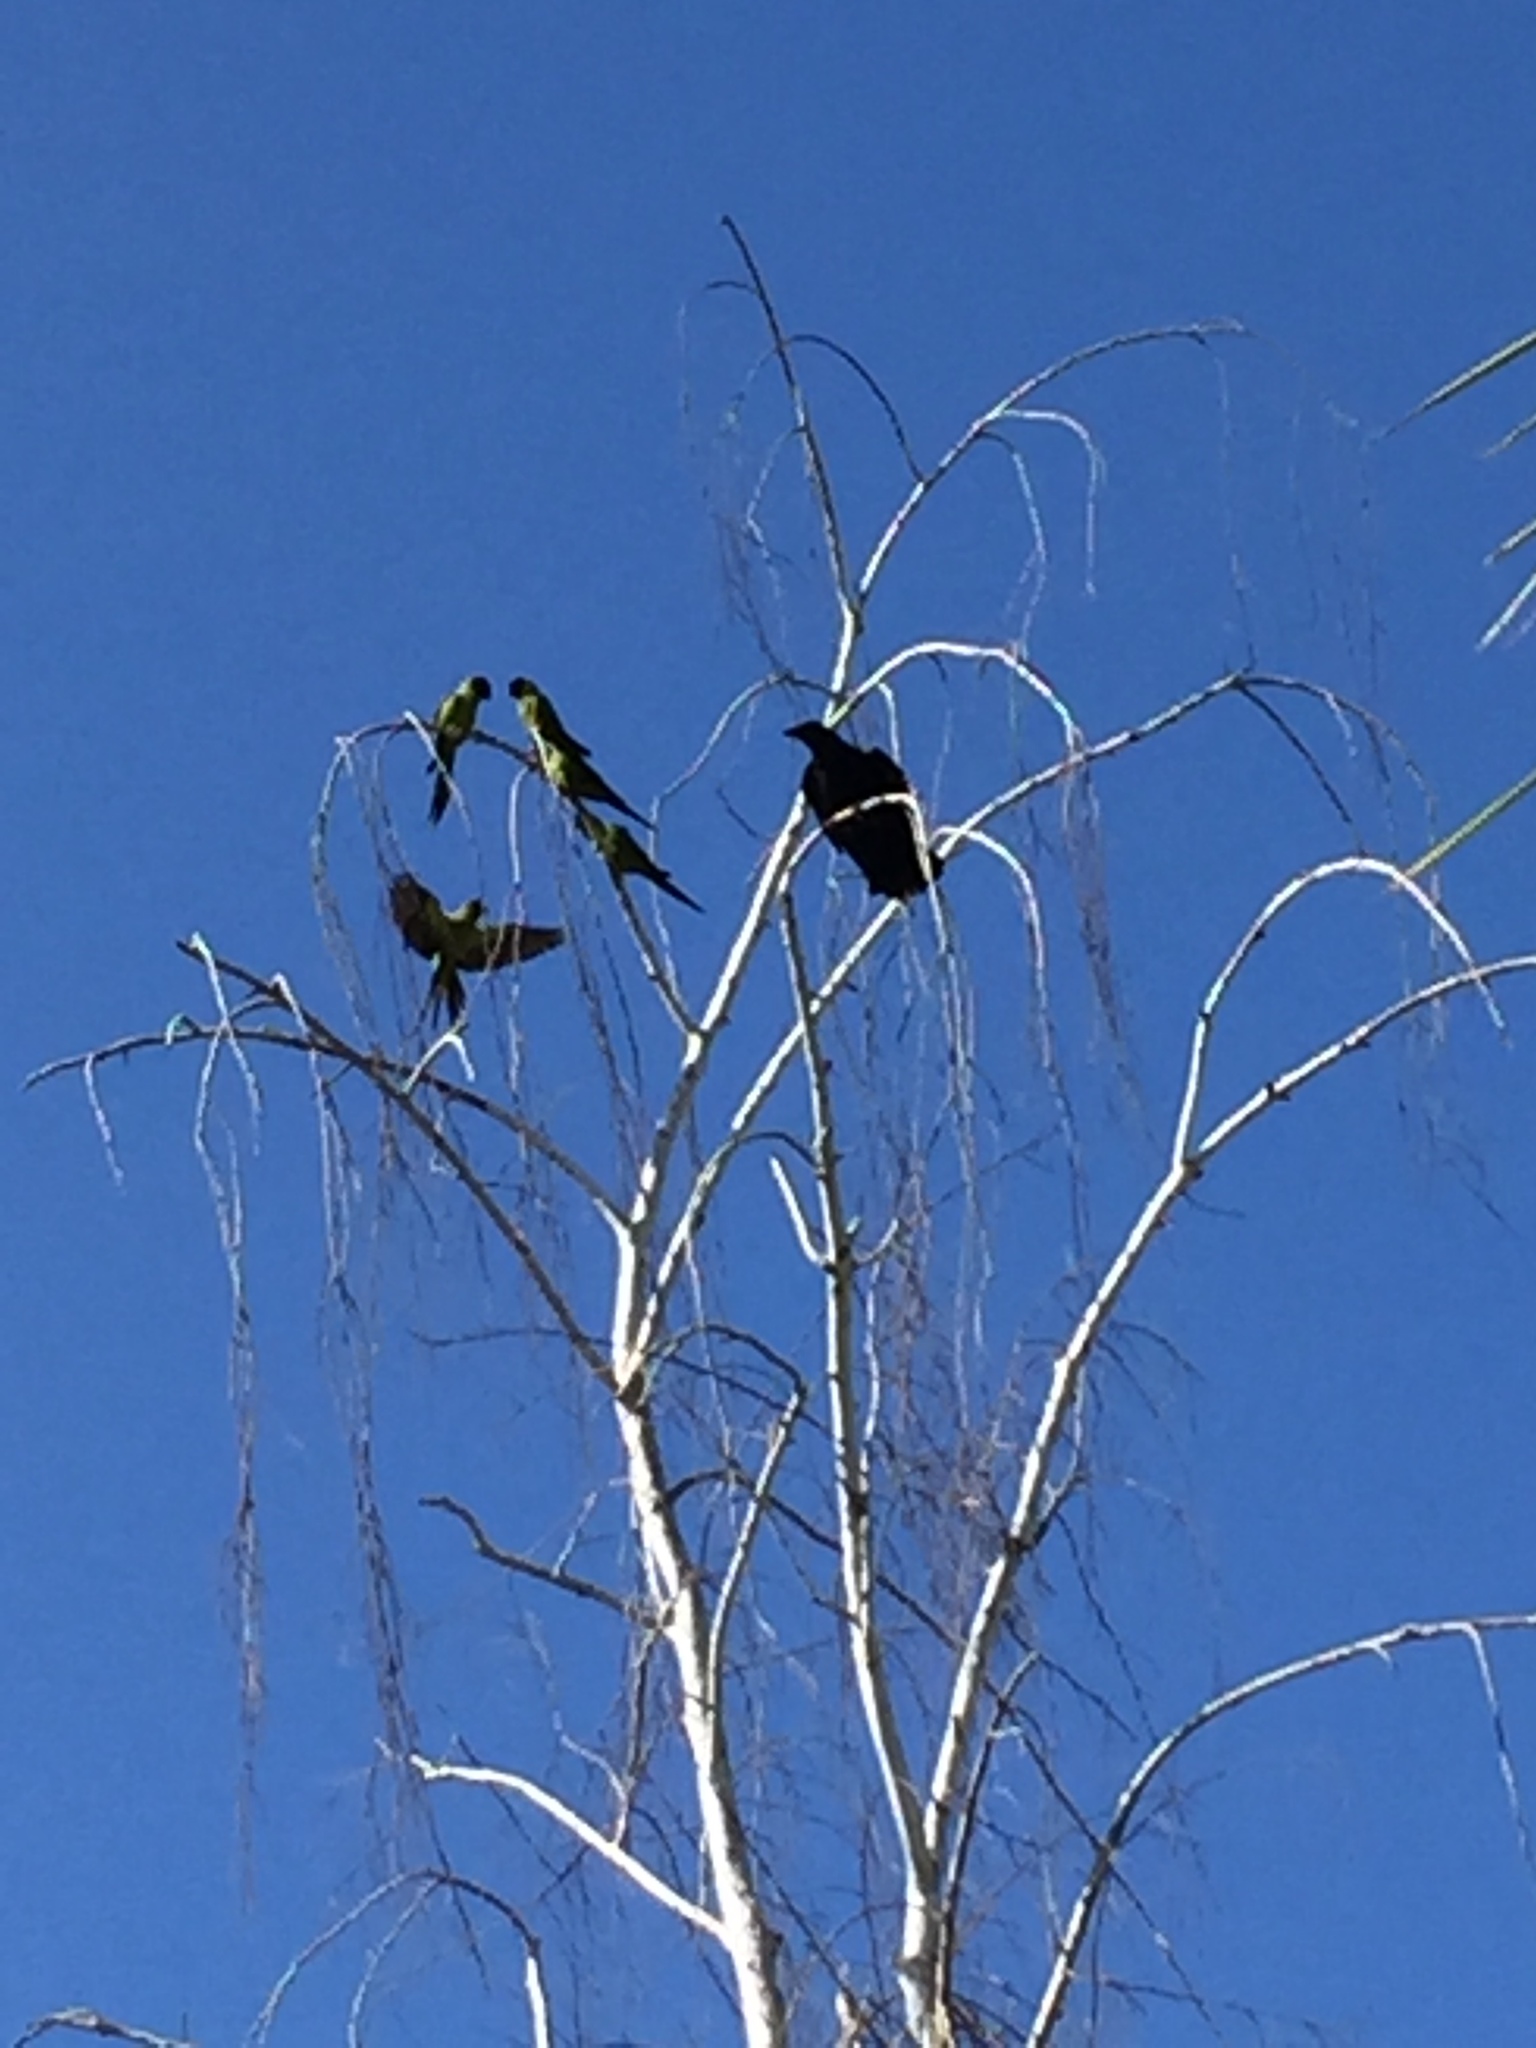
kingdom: Animalia
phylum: Chordata
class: Aves
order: Psittaciformes
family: Psittacidae
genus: Nandayus
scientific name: Nandayus nenday
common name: Nanday parakeet
